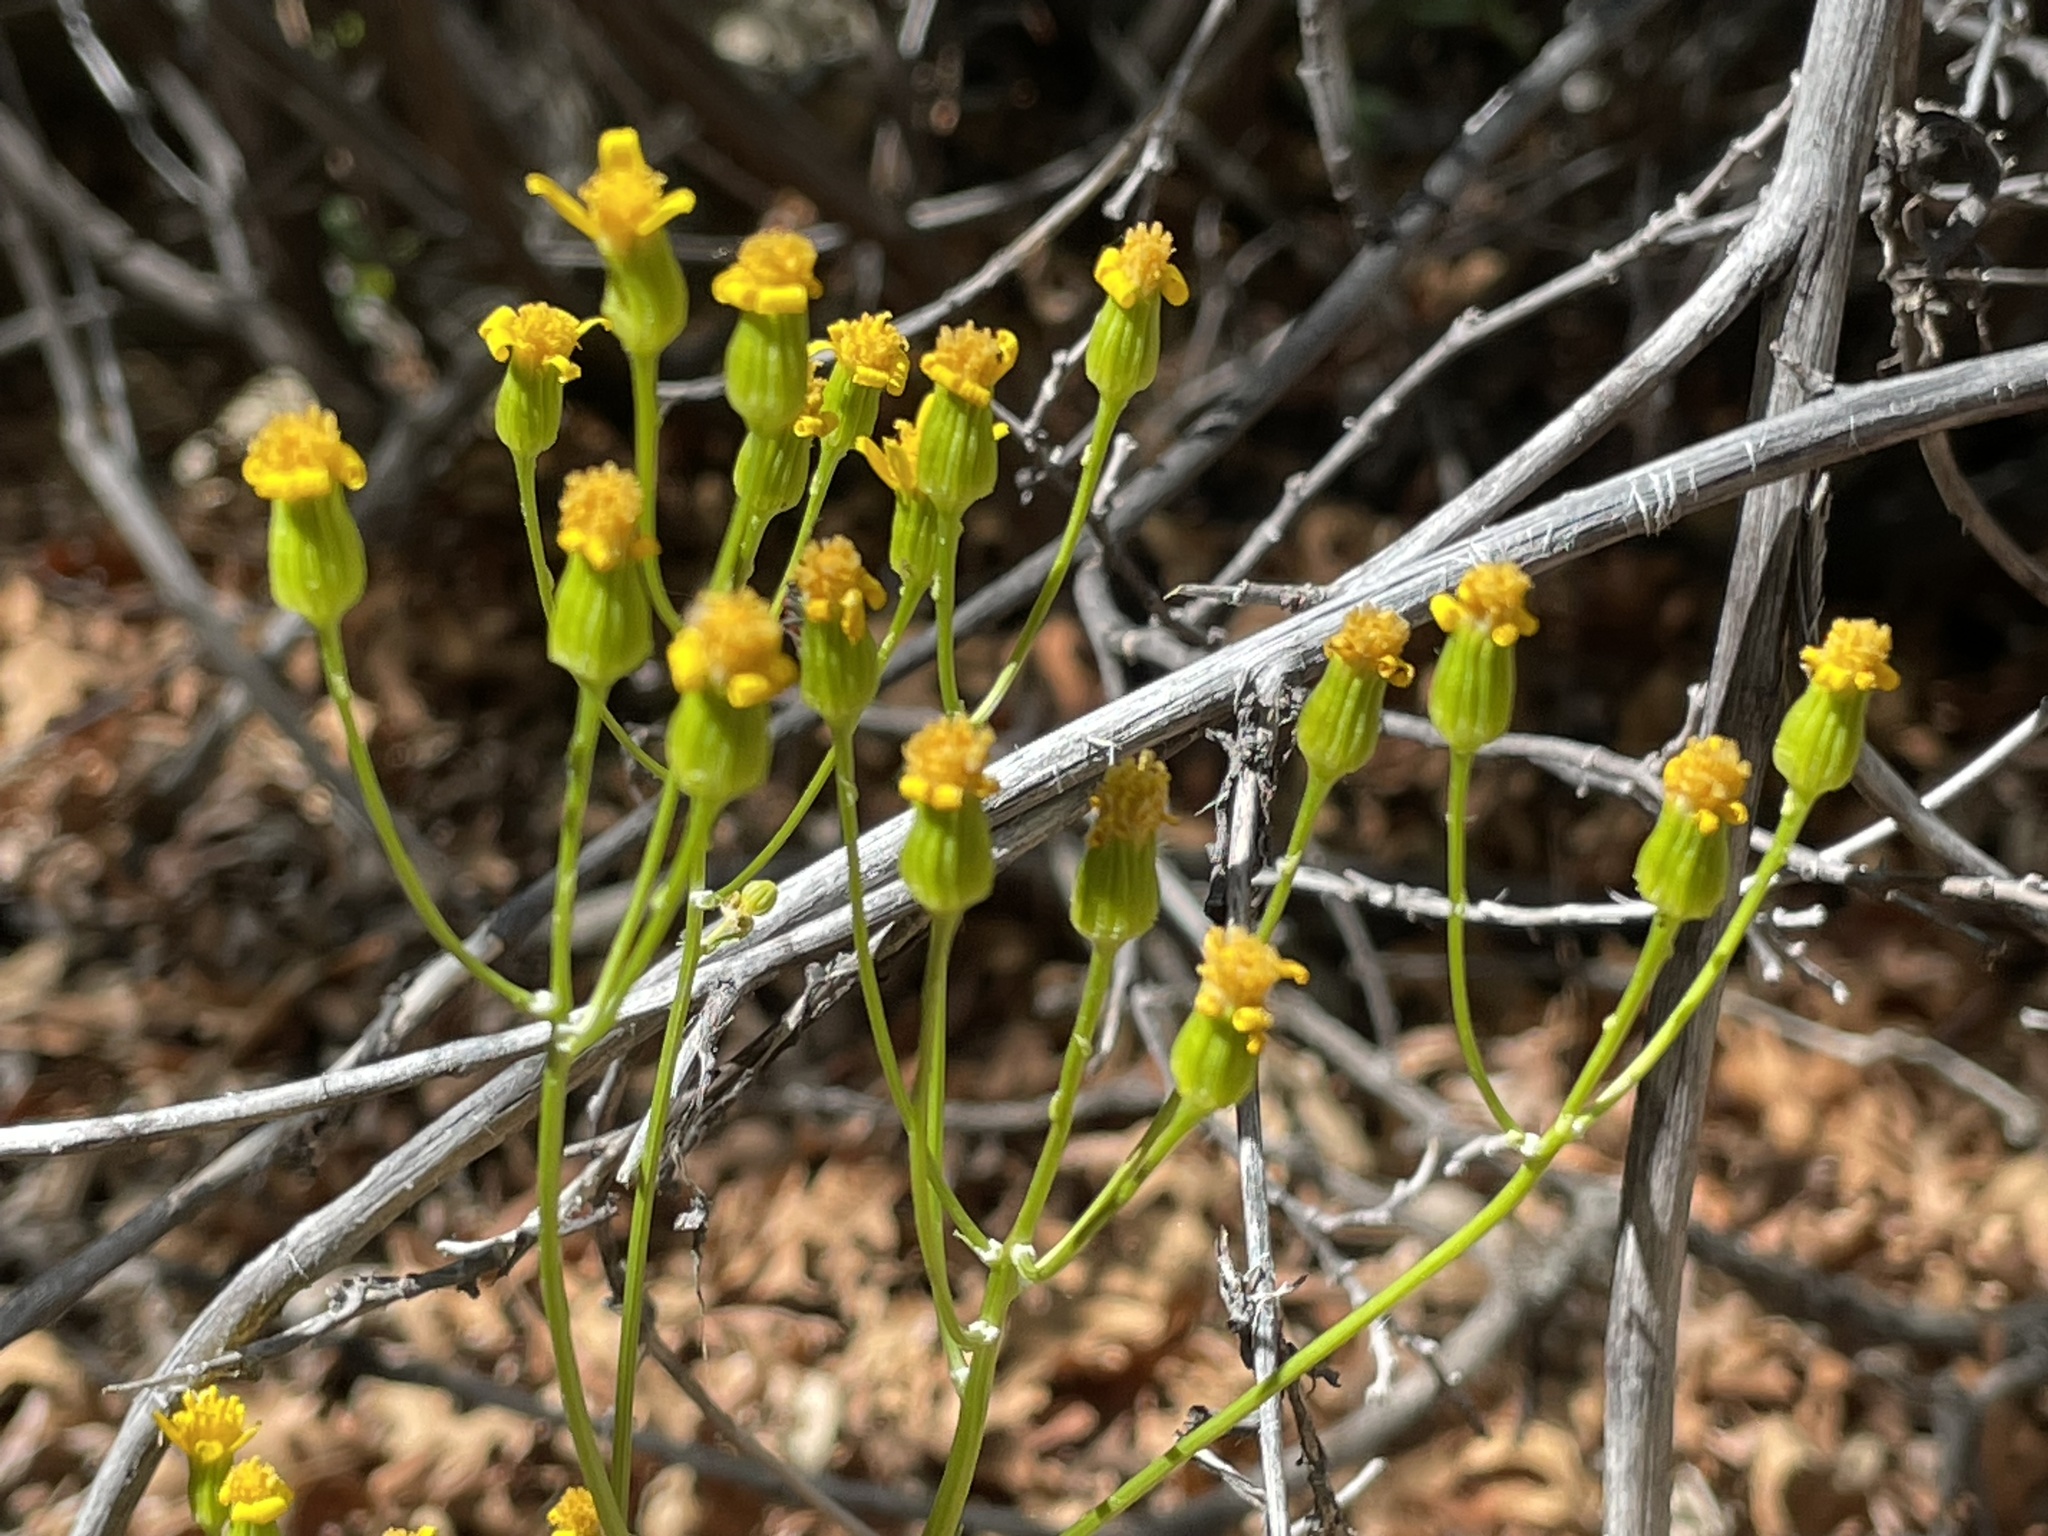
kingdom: Plantae
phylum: Tracheophyta
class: Magnoliopsida
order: Asterales
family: Asteraceae
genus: Packera
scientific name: Packera multilobata
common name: Lobe-leaf groundsel
